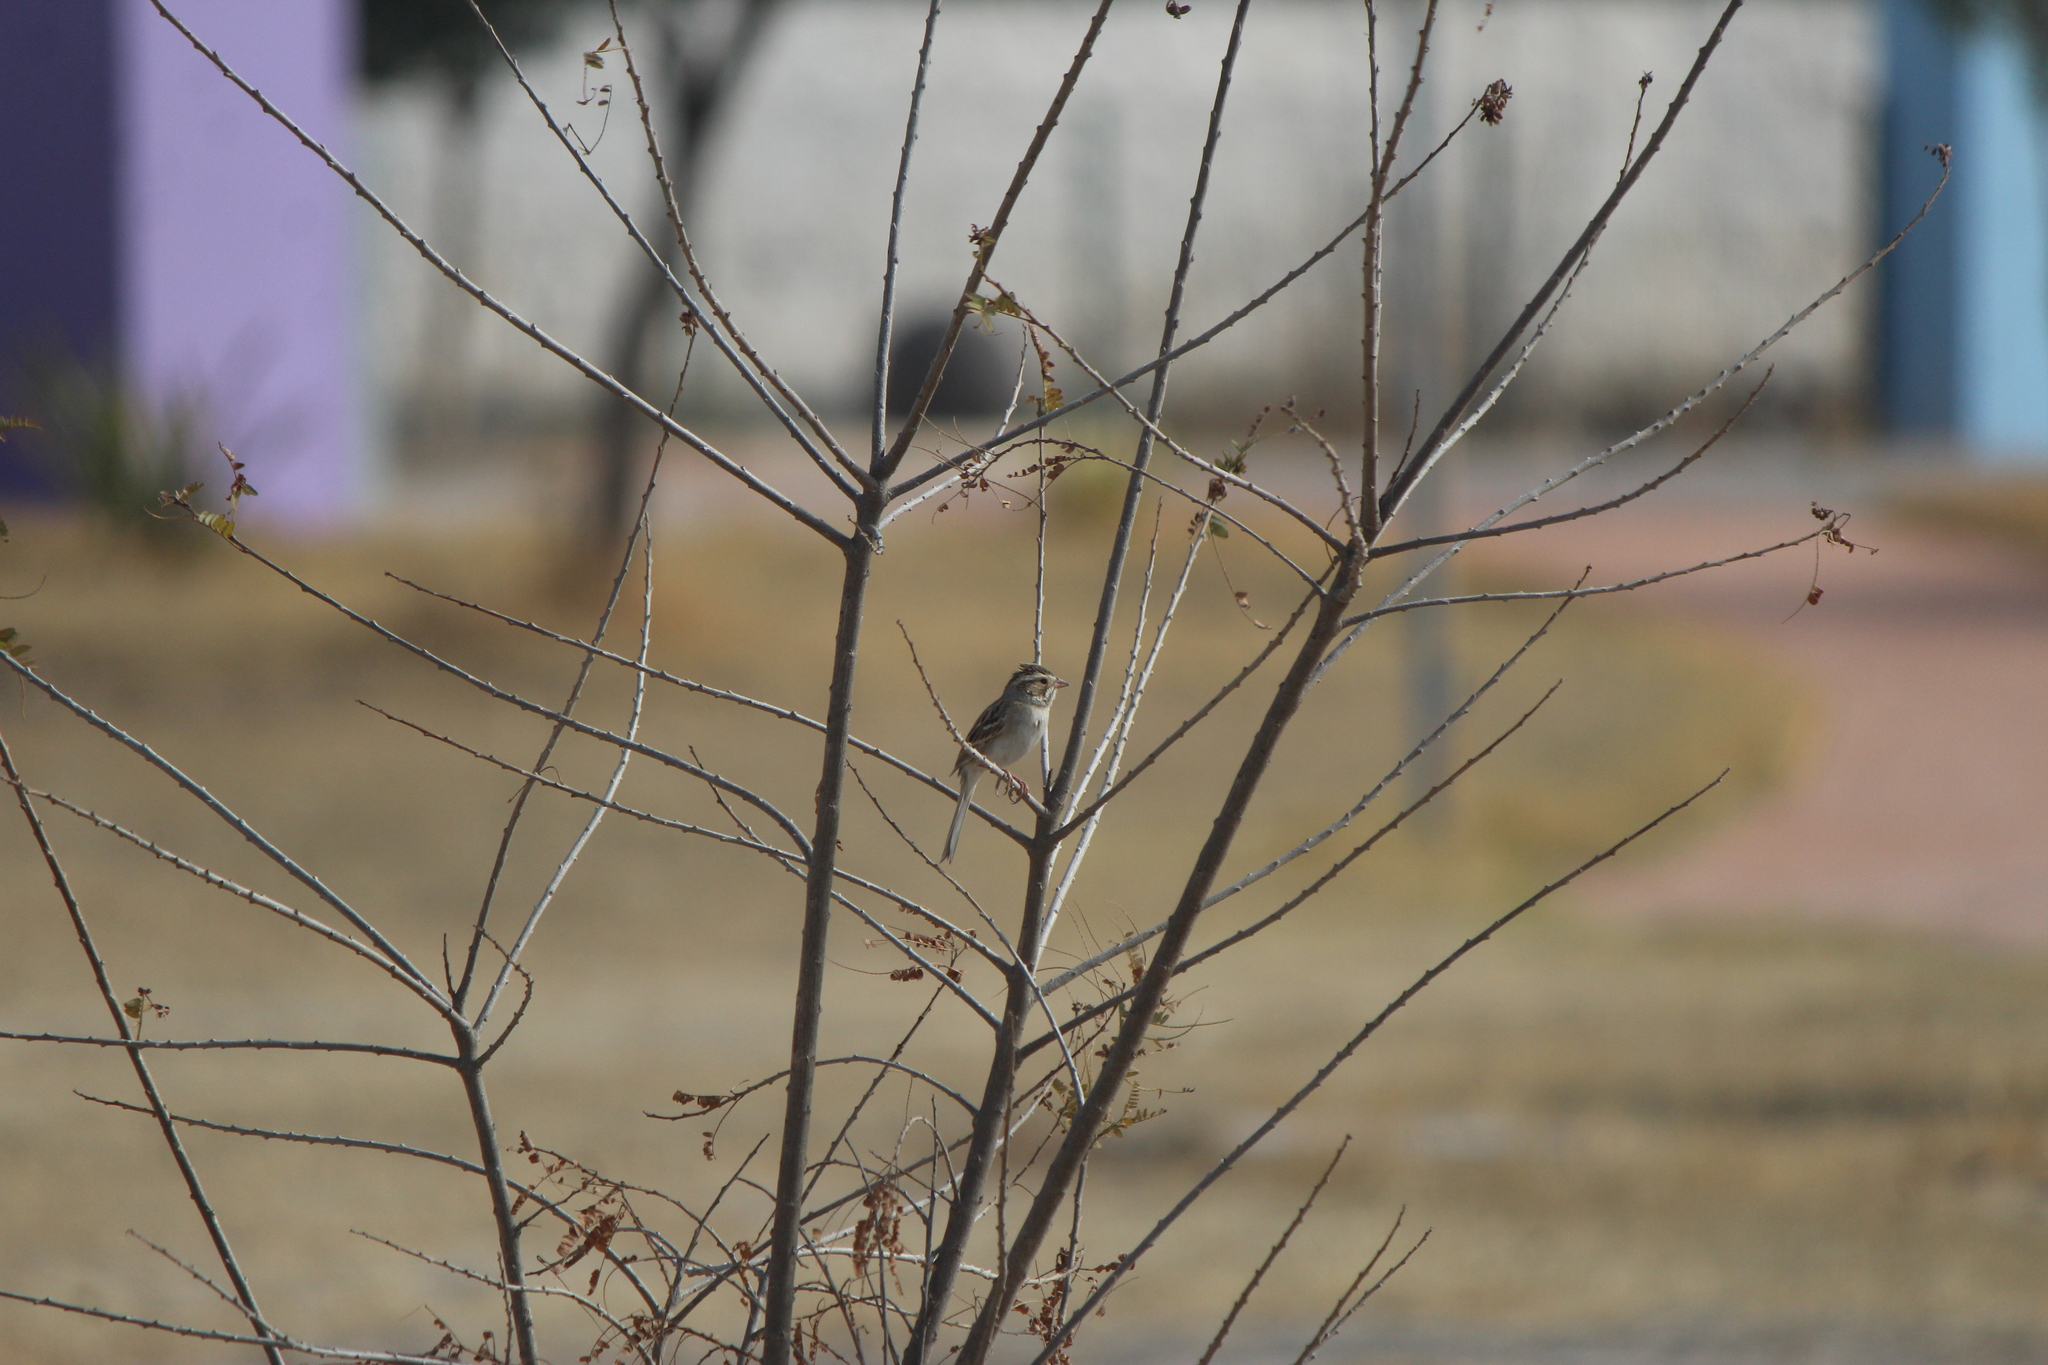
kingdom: Animalia
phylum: Chordata
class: Aves
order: Passeriformes
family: Passerellidae
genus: Spizella
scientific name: Spizella pallida
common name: Clay-colored sparrow
